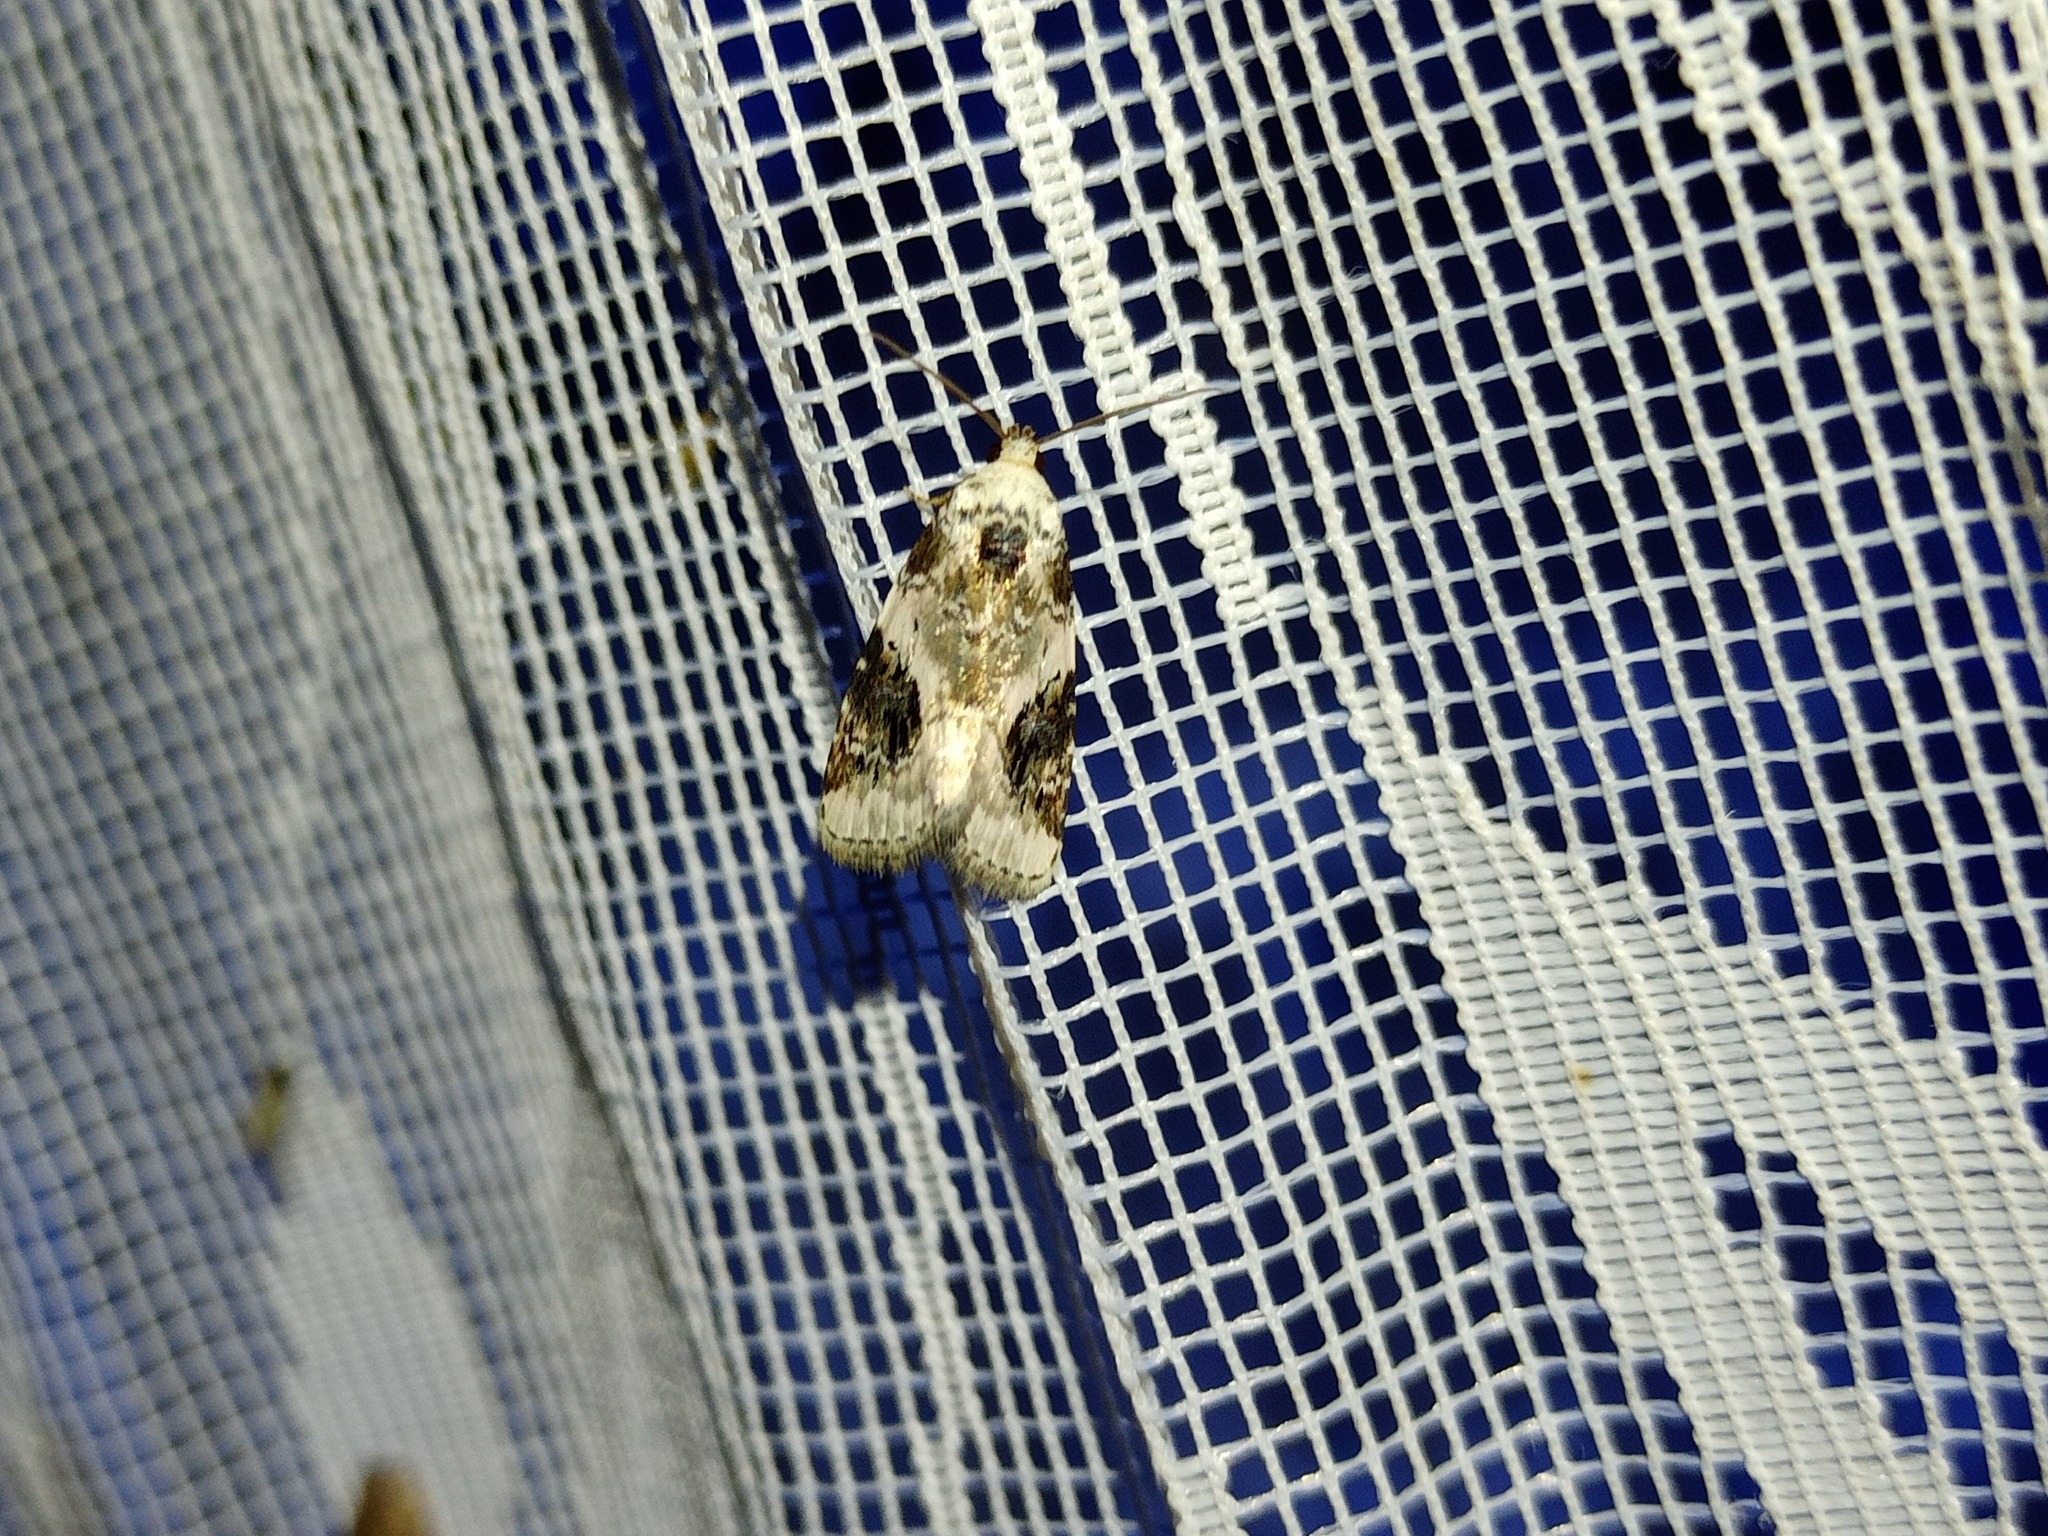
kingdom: Animalia
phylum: Arthropoda
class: Insecta
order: Lepidoptera
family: Noctuidae
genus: Pseudeustrotia
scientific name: Pseudeustrotia candidula
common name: Shining marbled
